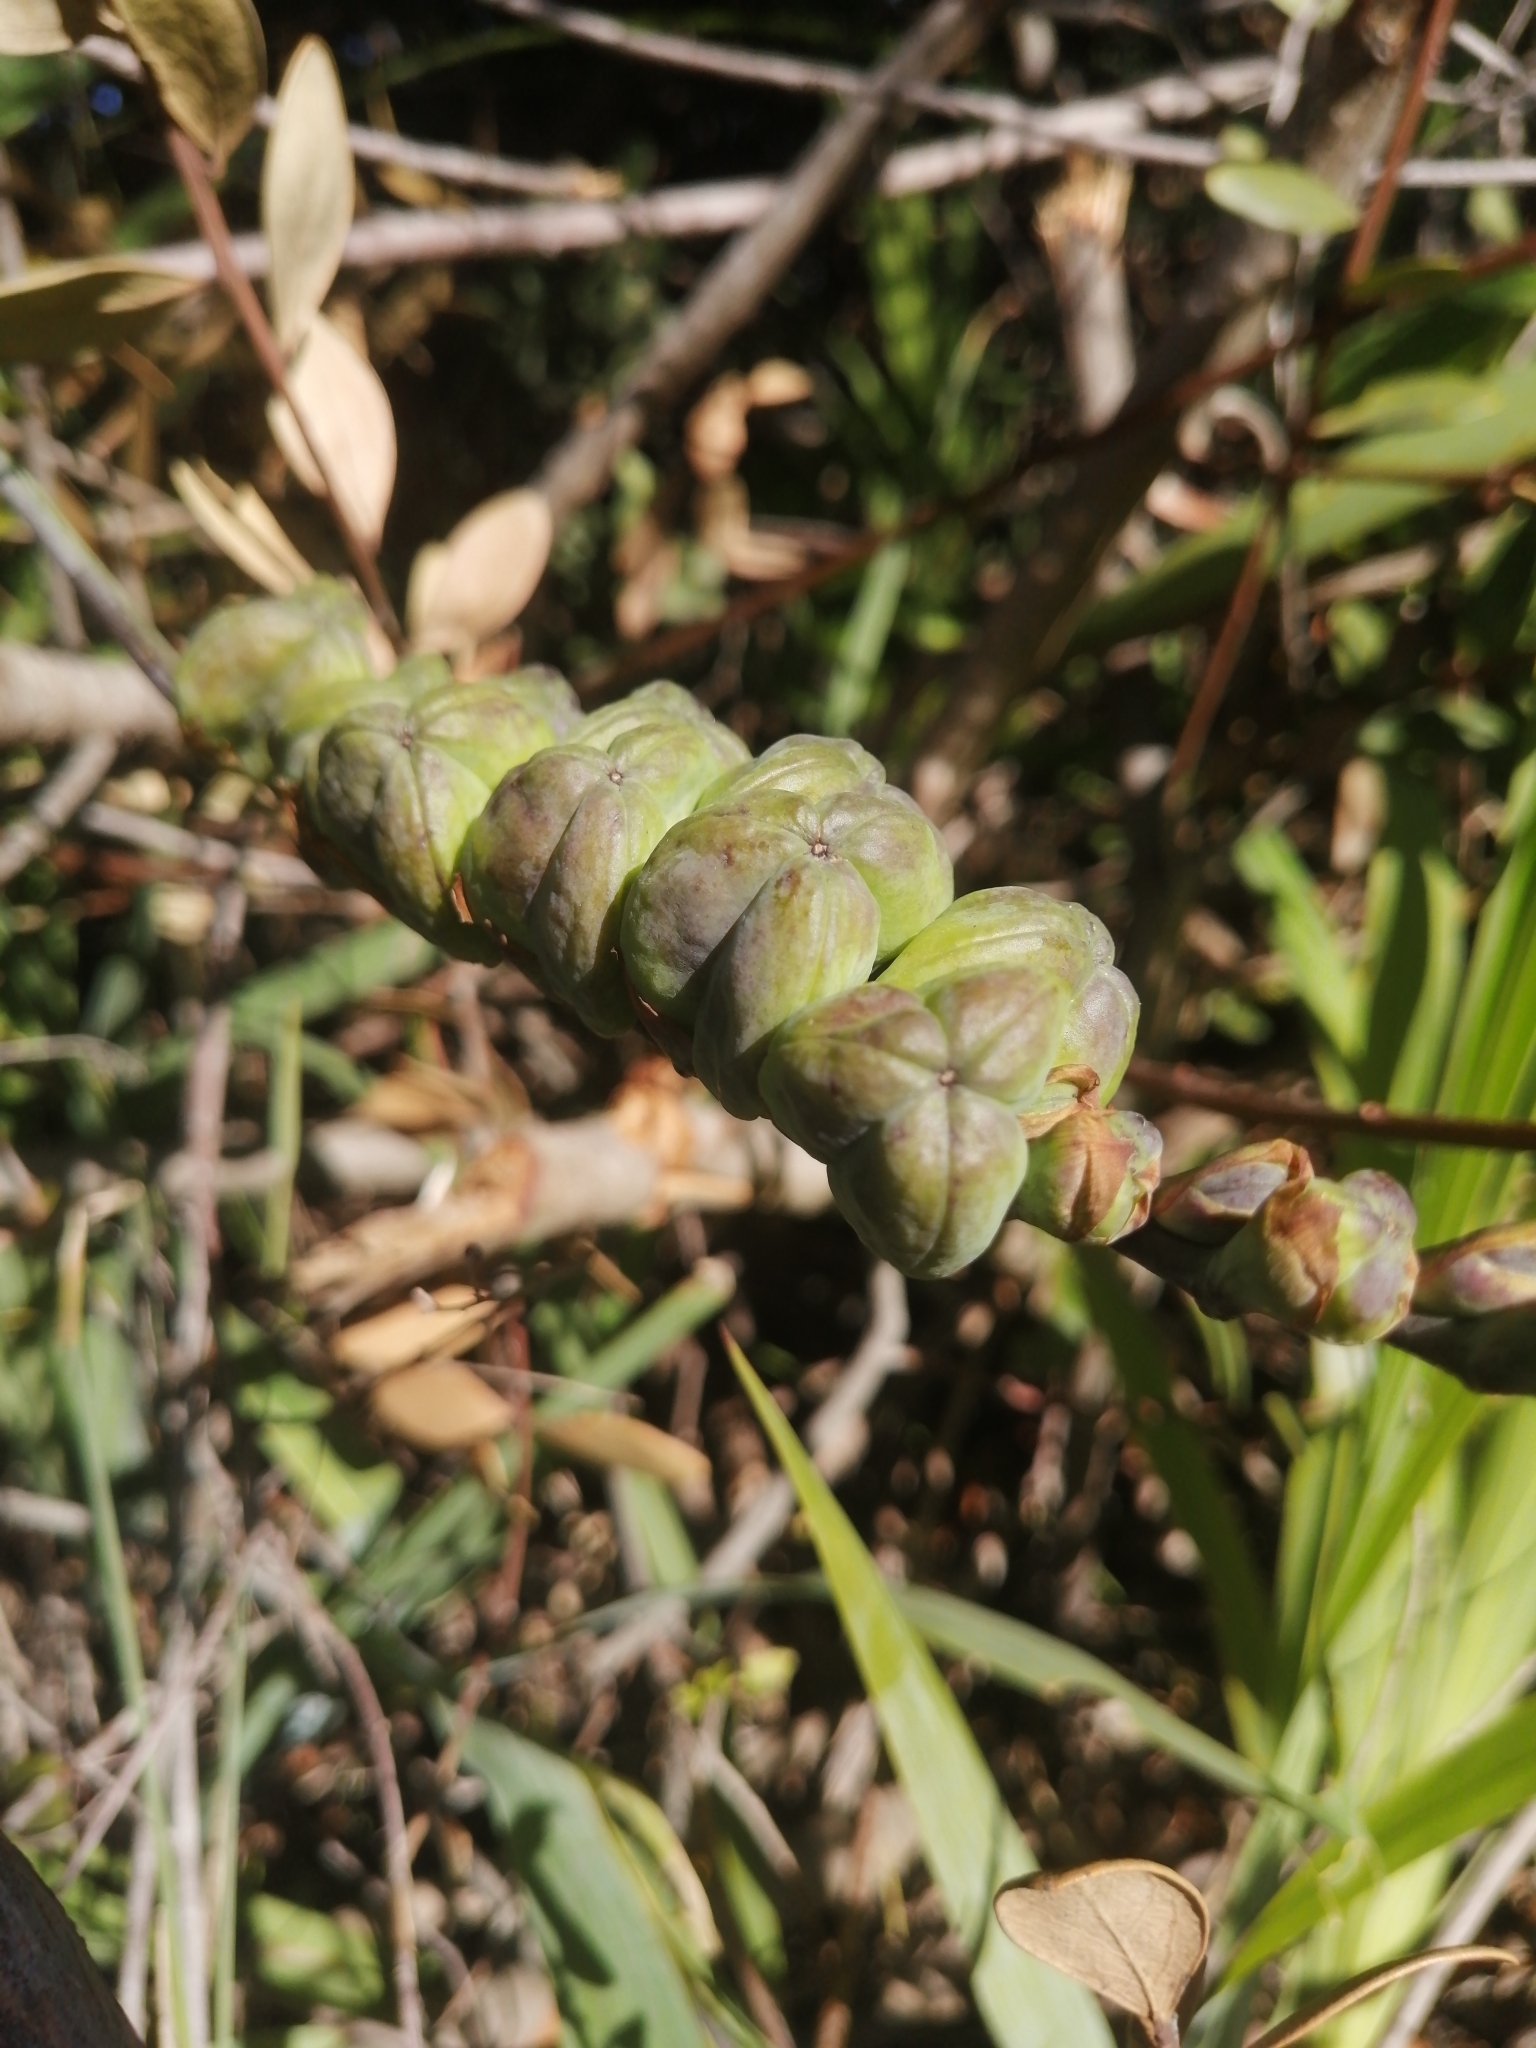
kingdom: Plantae
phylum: Tracheophyta
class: Liliopsida
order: Asparagales
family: Iridaceae
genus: Chasmanthe
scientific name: Chasmanthe aethiopica
